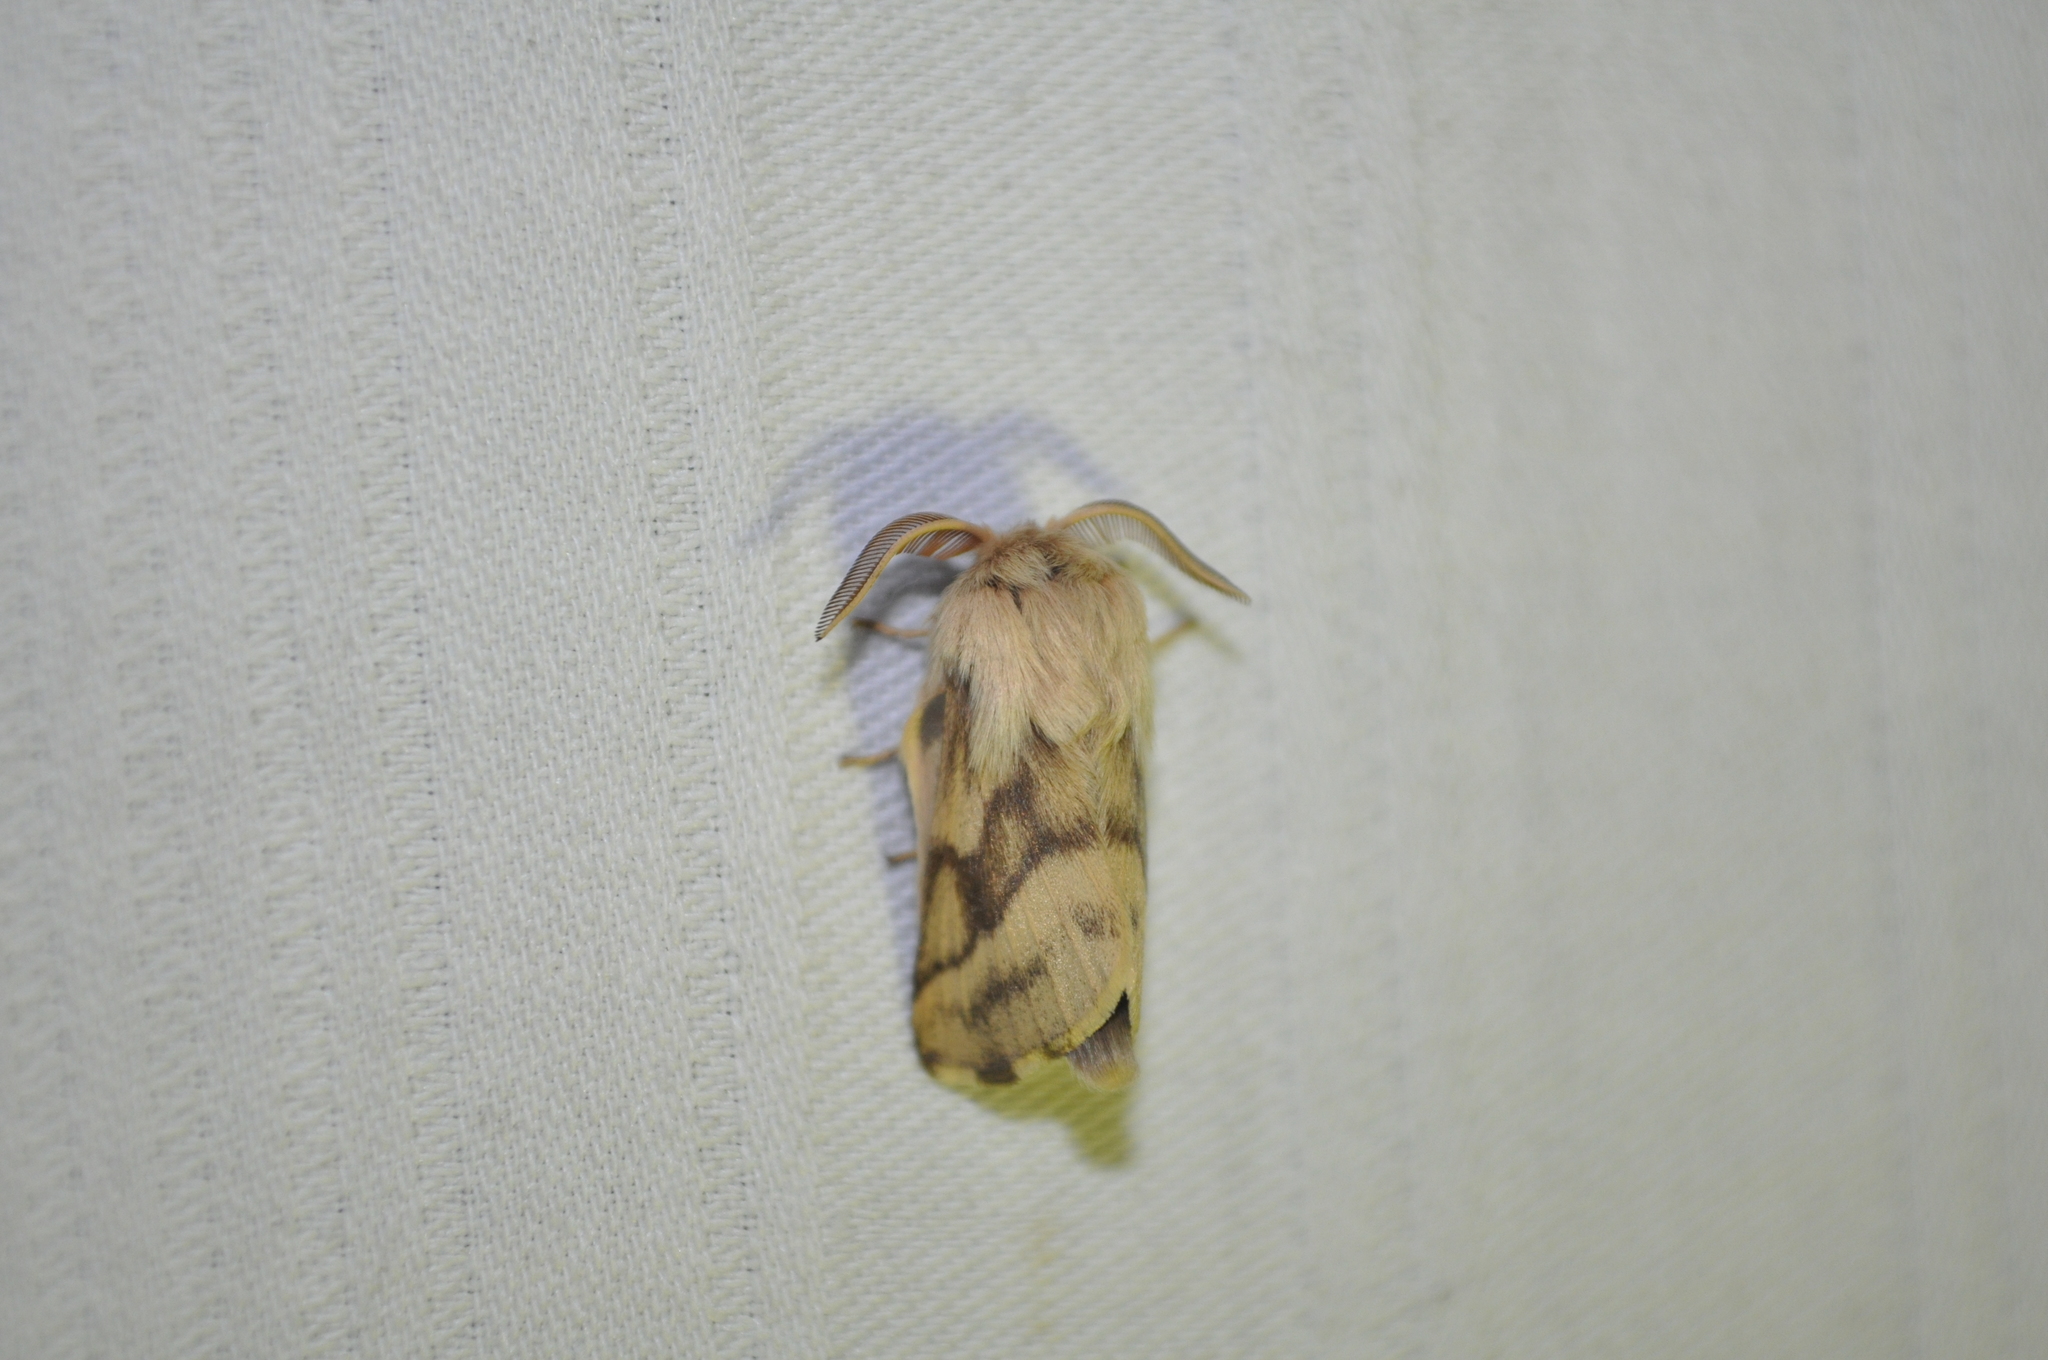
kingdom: Animalia
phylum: Arthropoda
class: Insecta
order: Lepidoptera
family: Lasiocampidae
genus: Malacosoma
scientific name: Malacosoma castrense
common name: Ground lackey
